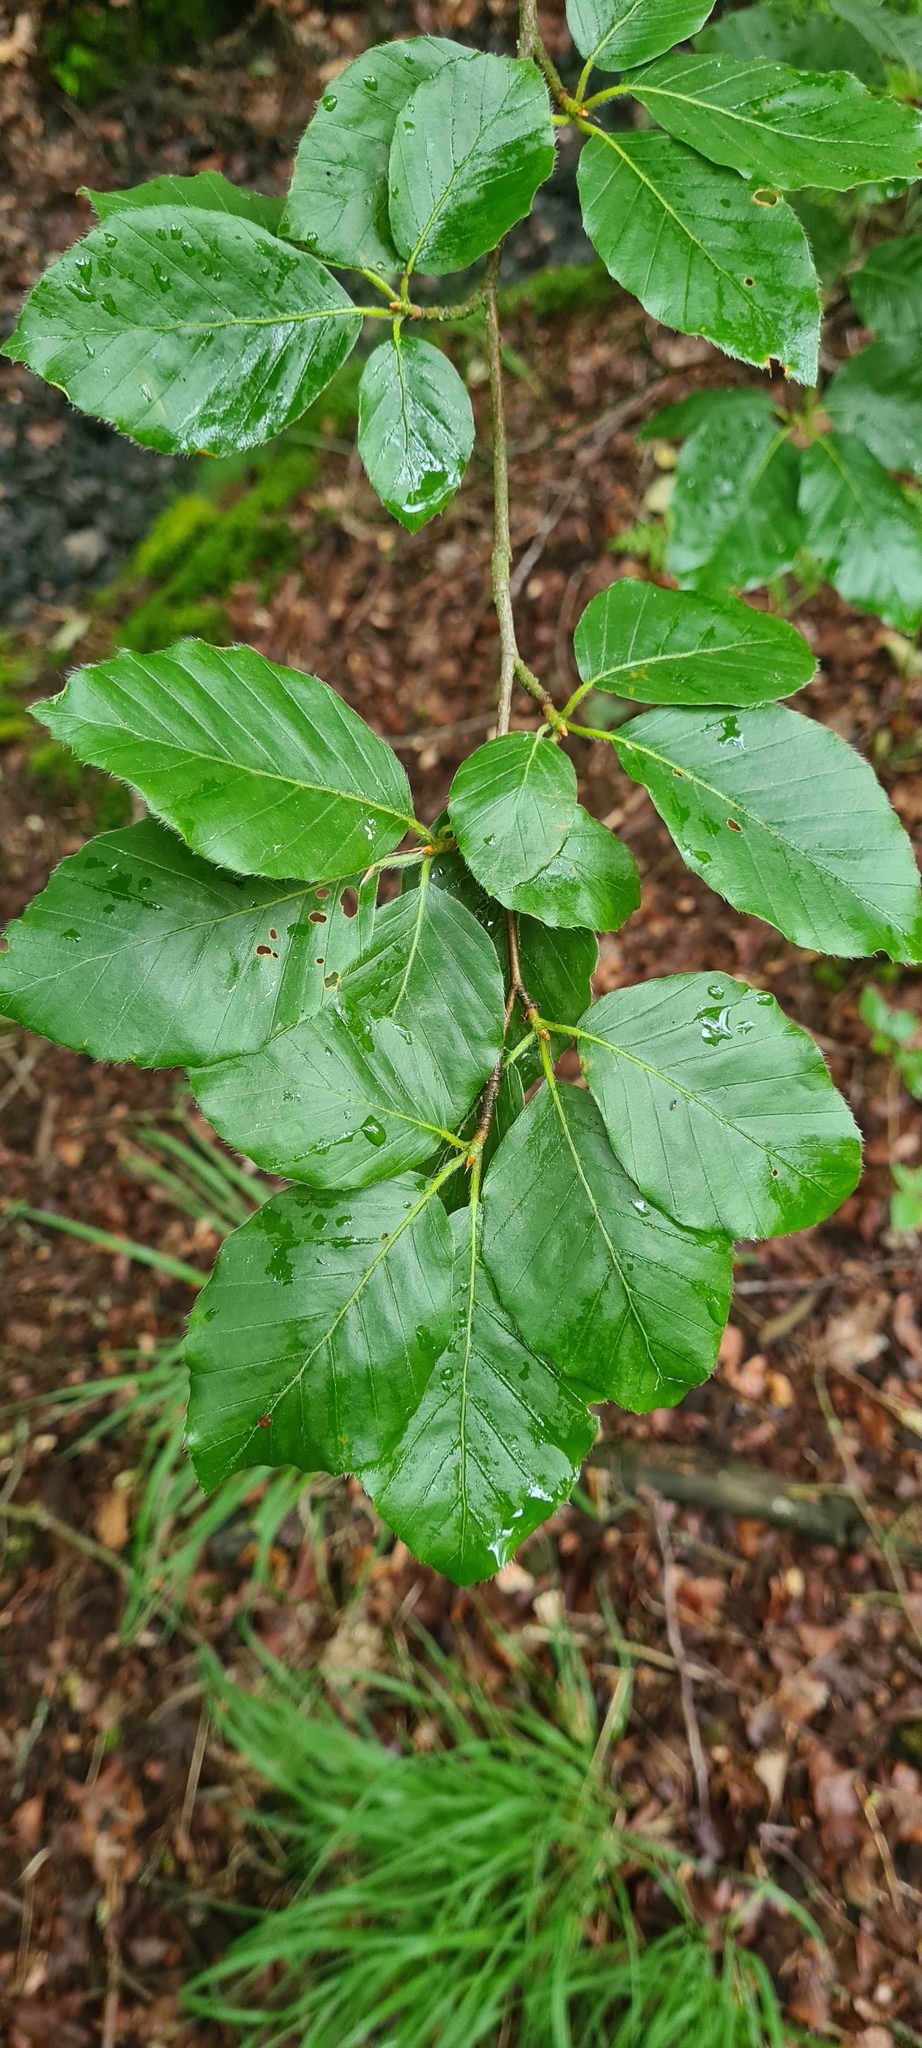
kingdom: Plantae
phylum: Tracheophyta
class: Magnoliopsida
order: Fagales
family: Fagaceae
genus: Fagus
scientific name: Fagus sylvatica
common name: Beech
